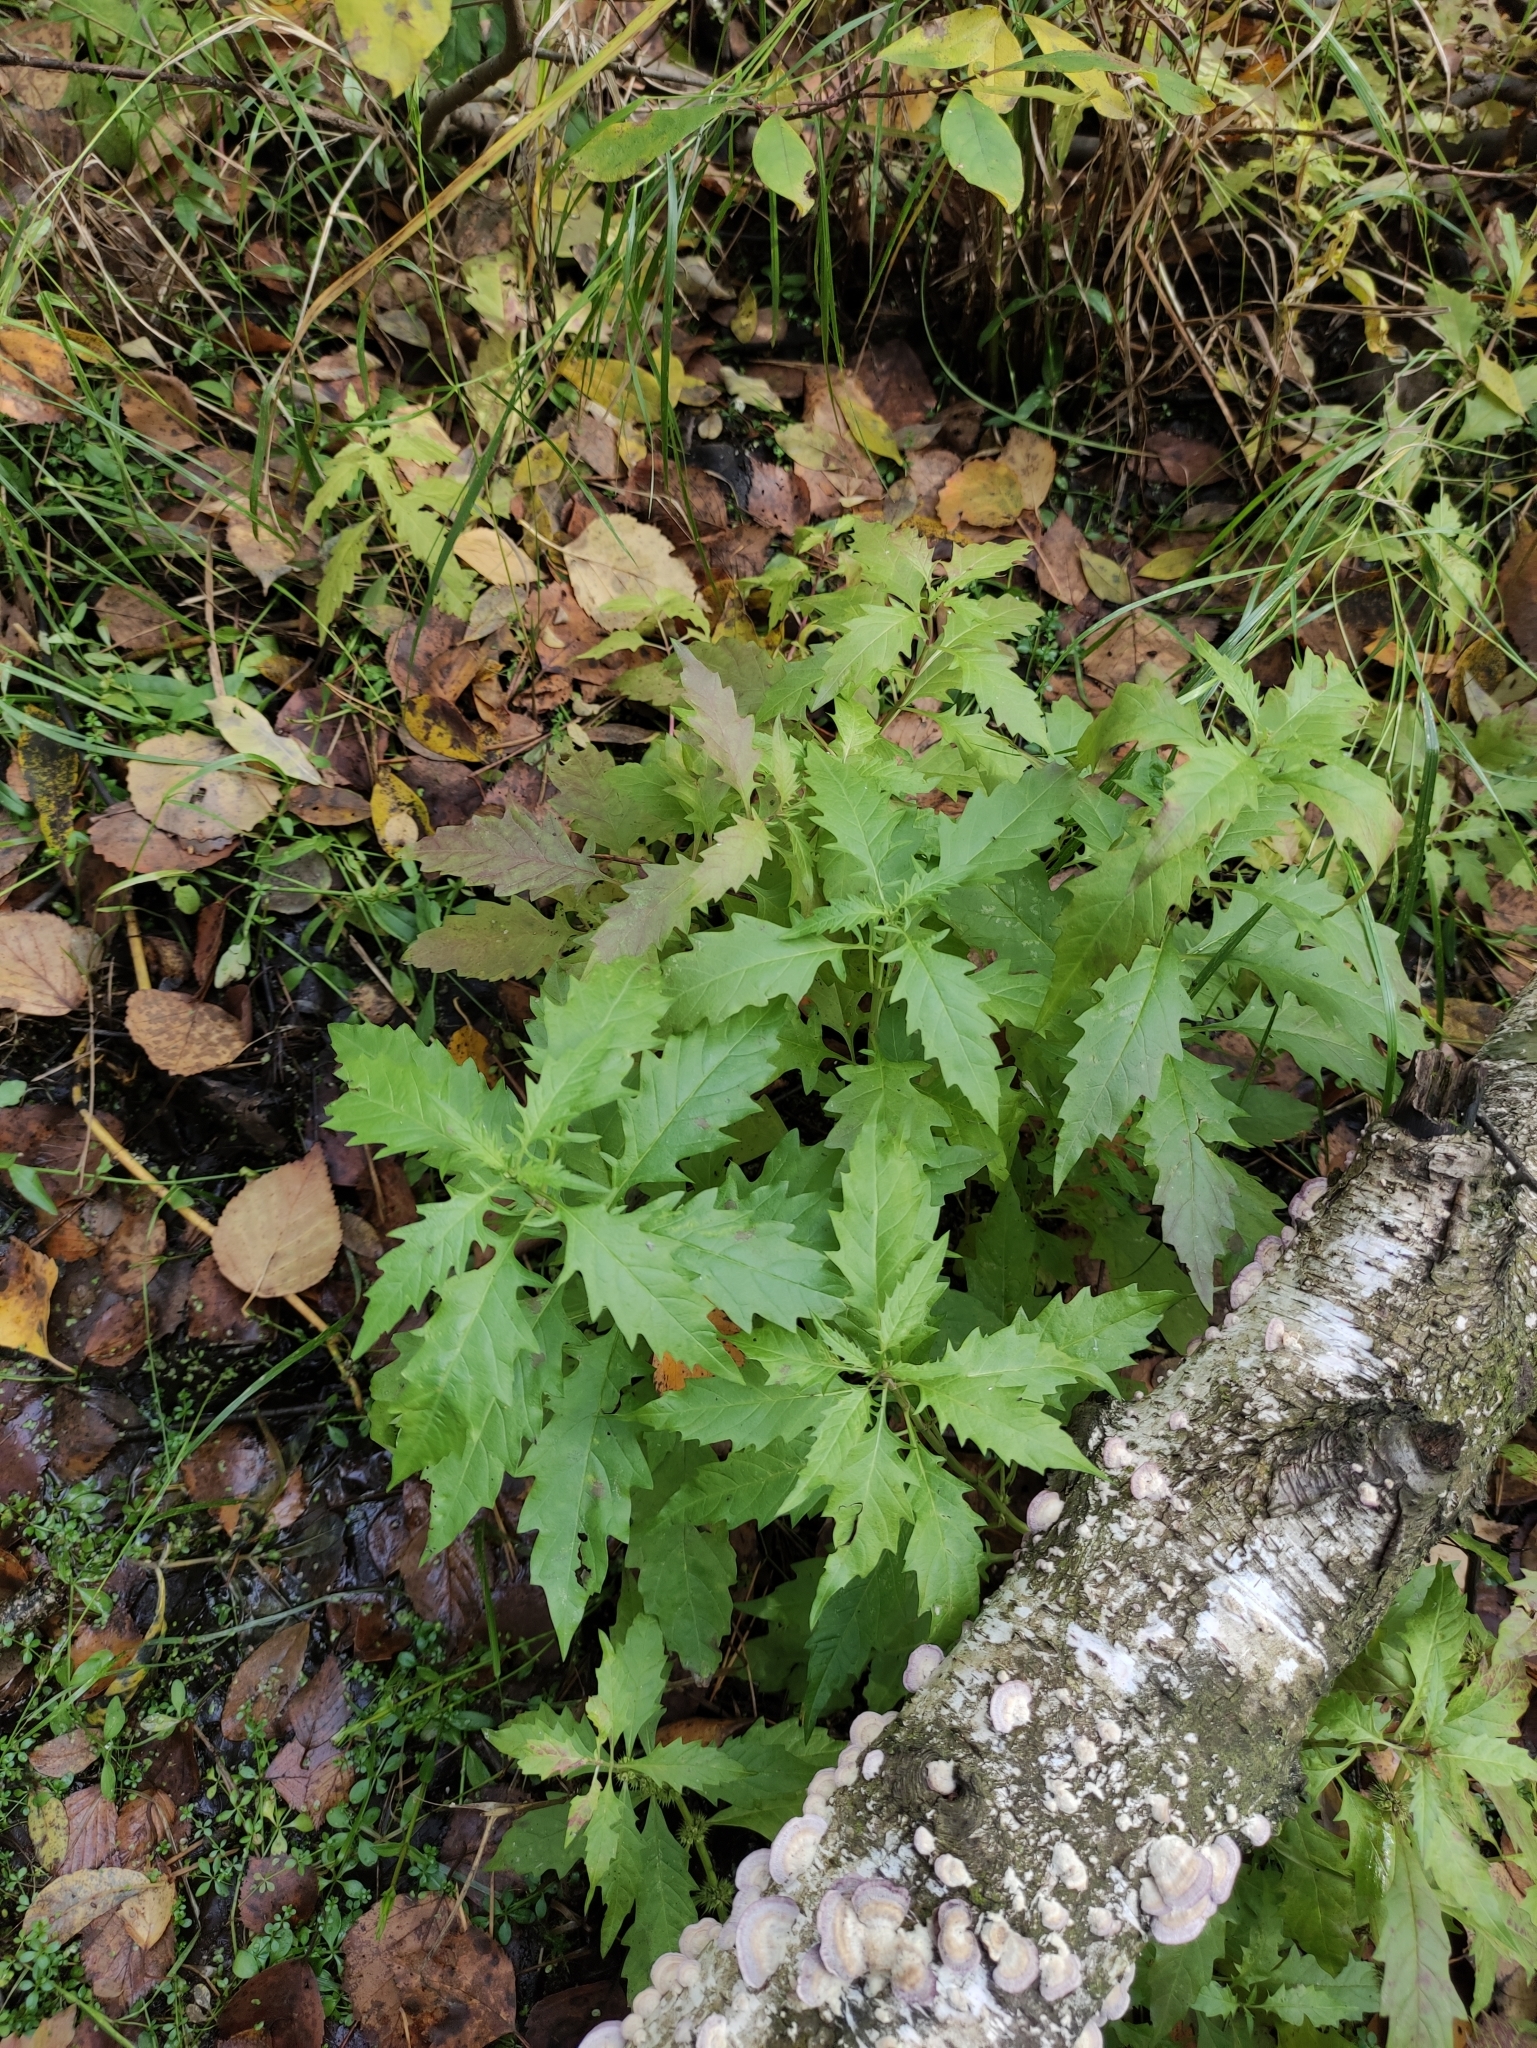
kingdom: Plantae
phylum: Tracheophyta
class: Magnoliopsida
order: Lamiales
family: Lamiaceae
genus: Lycopus
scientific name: Lycopus europaeus
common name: European bugleweed
